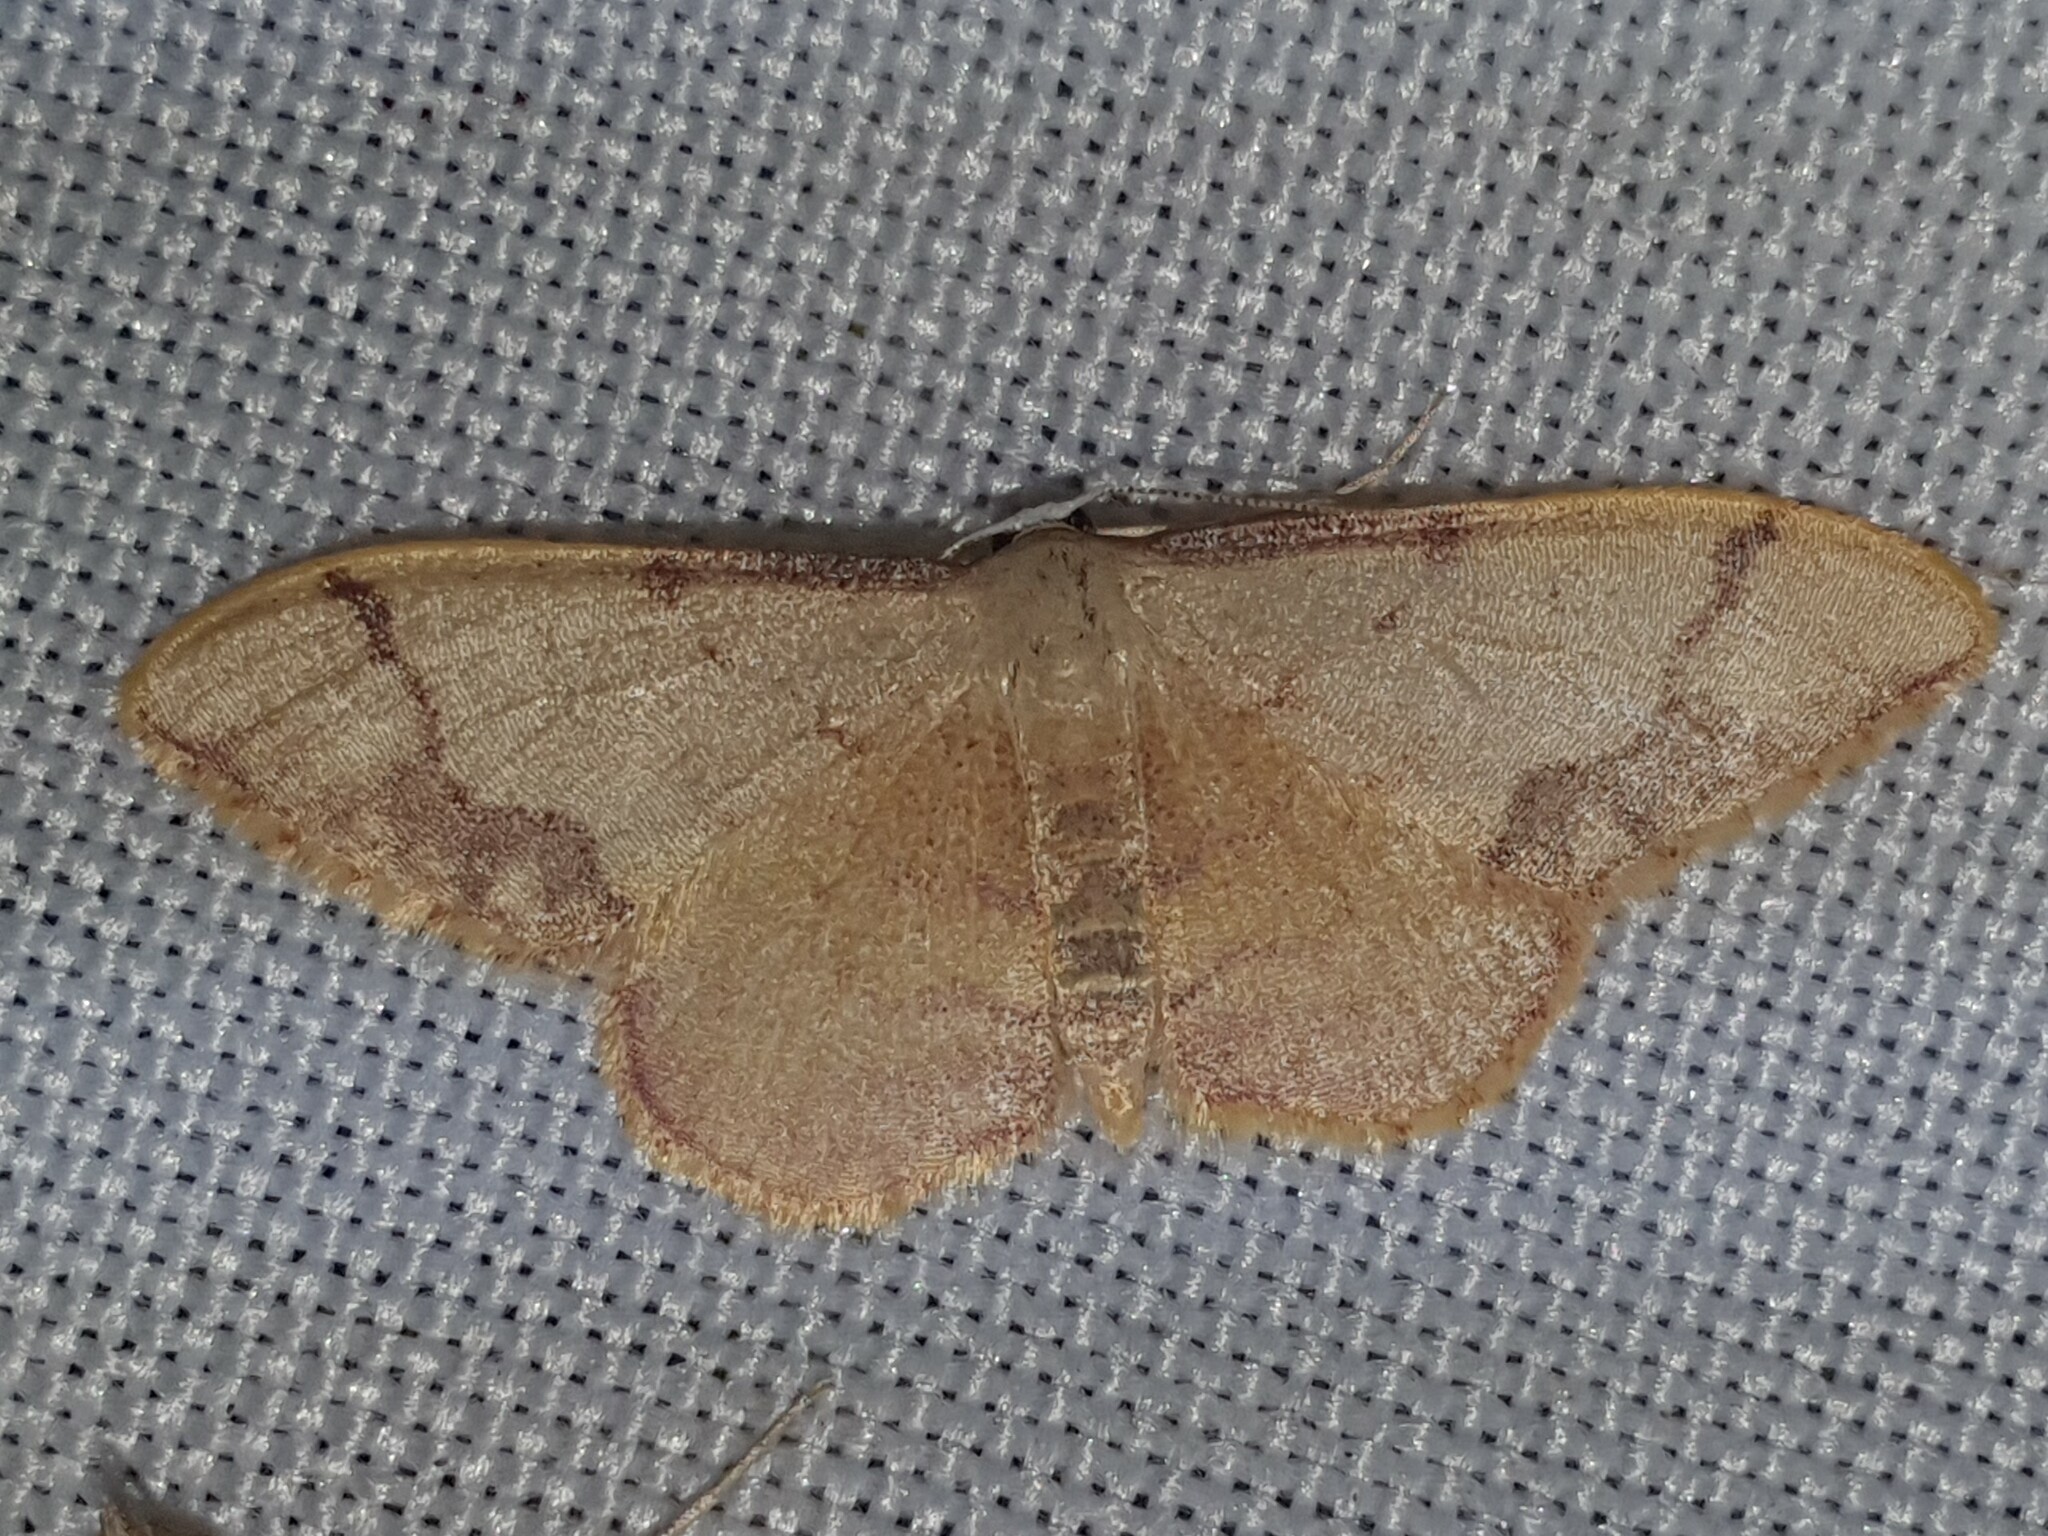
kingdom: Animalia
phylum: Arthropoda
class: Insecta
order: Lepidoptera
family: Geometridae
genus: Idaea
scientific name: Idaea ostrinaria
